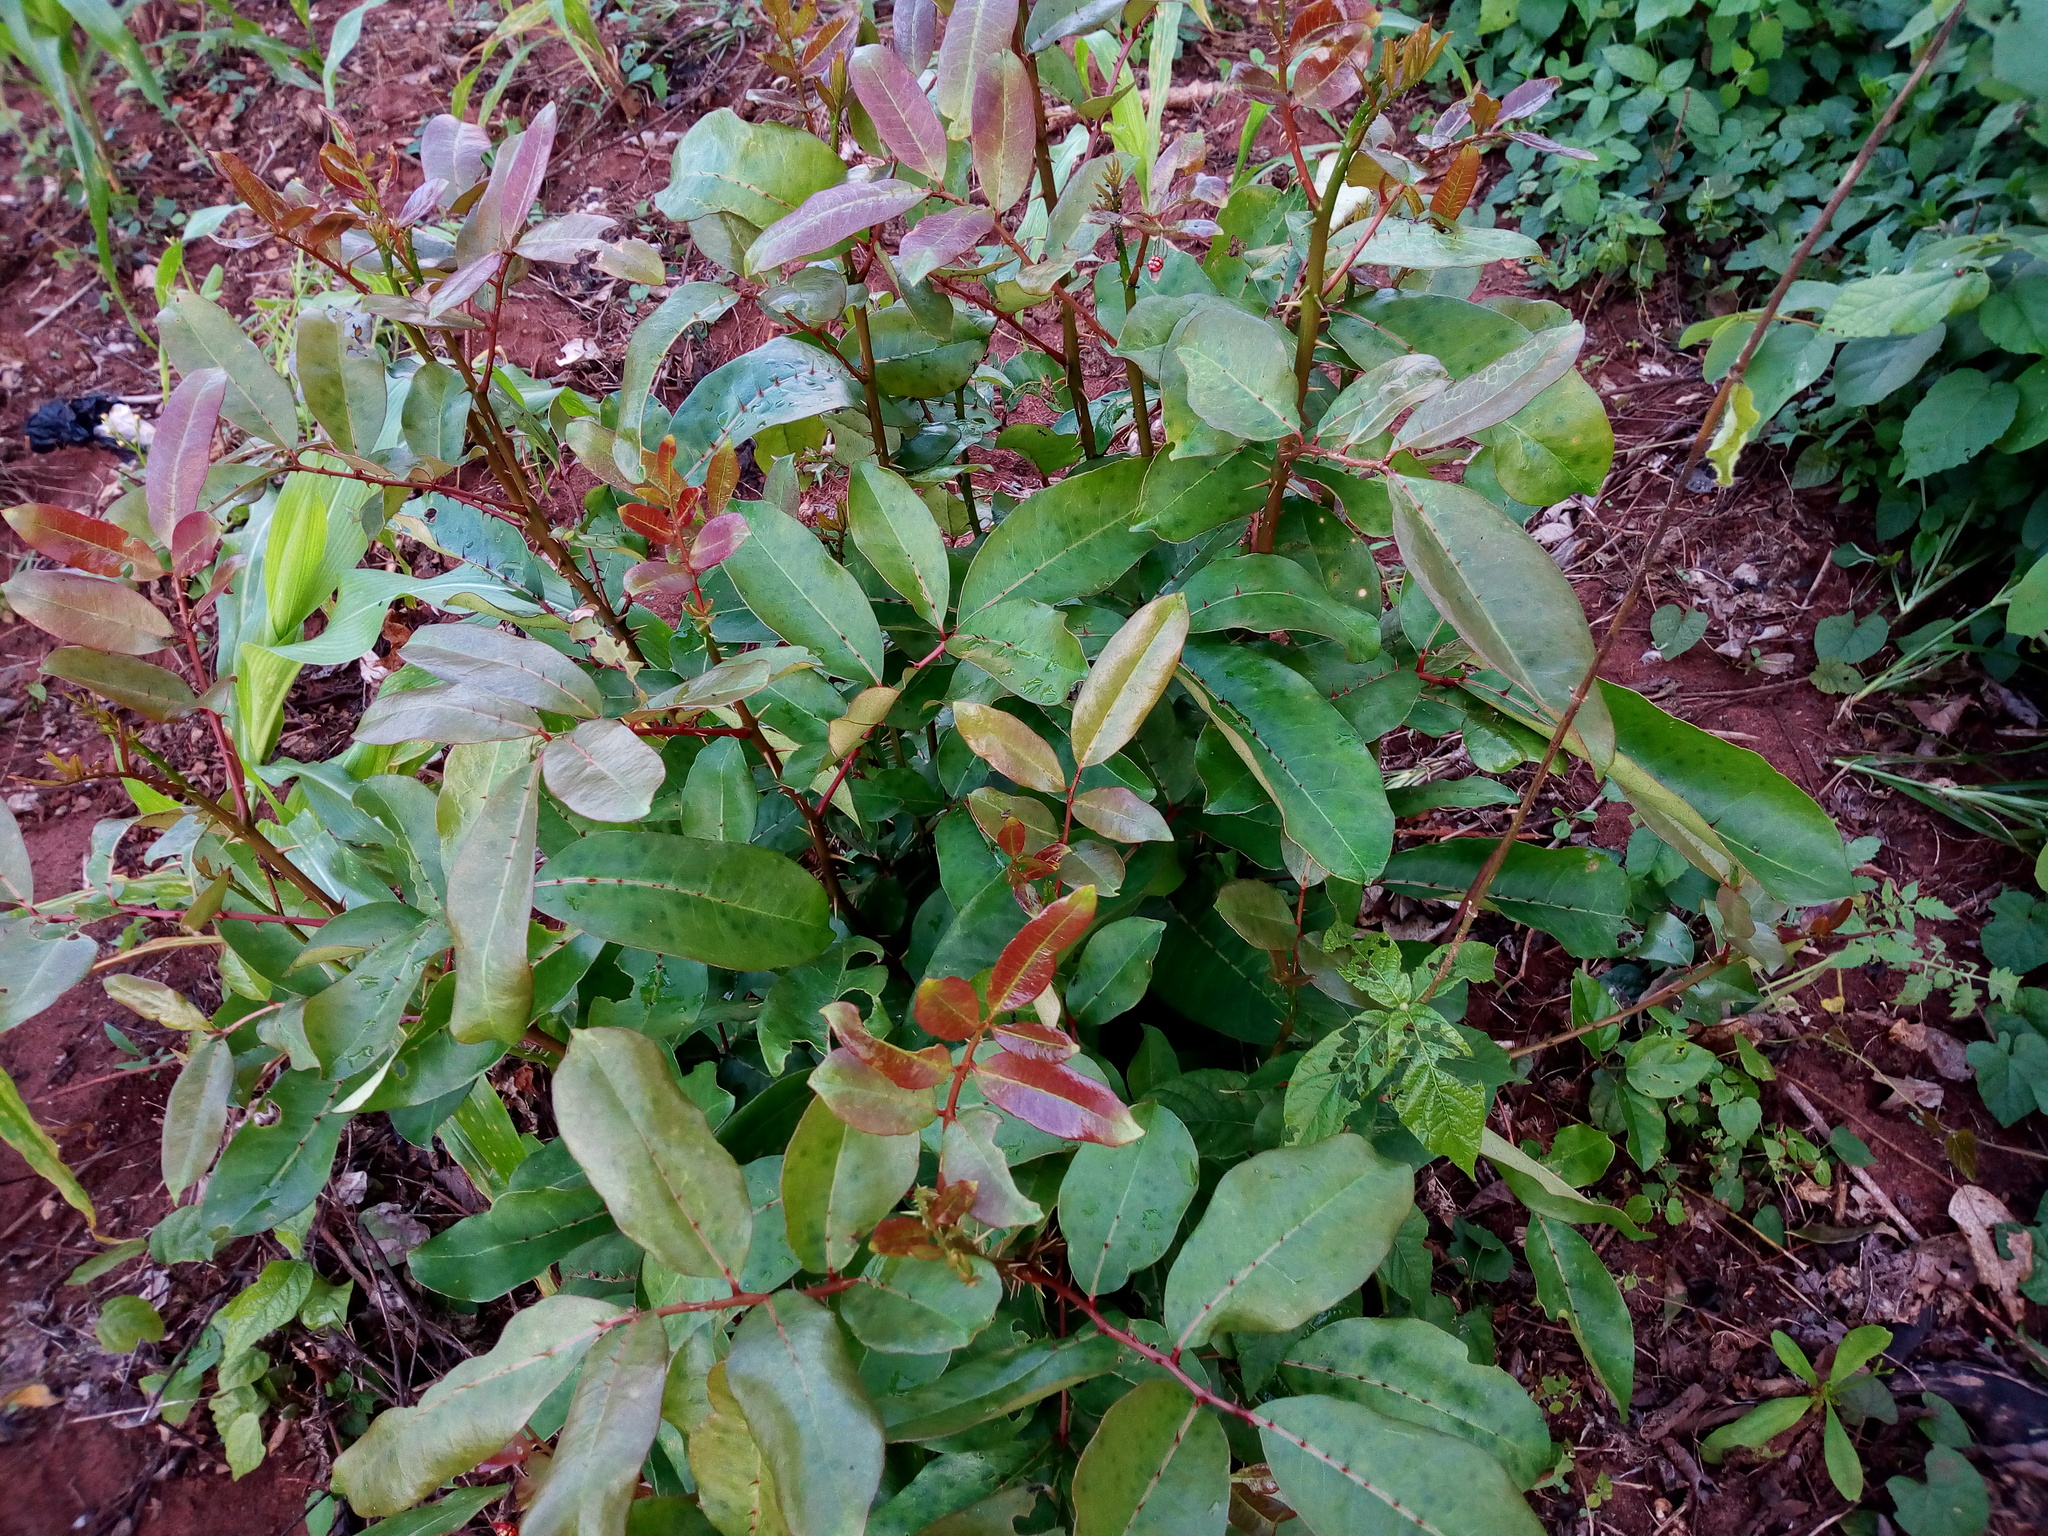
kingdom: Plantae
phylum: Tracheophyta
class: Magnoliopsida
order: Sapindales
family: Rutaceae
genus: Zanthoxylum
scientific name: Zanthoxylum zanthoxyloides
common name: Senegal prickly-ash
